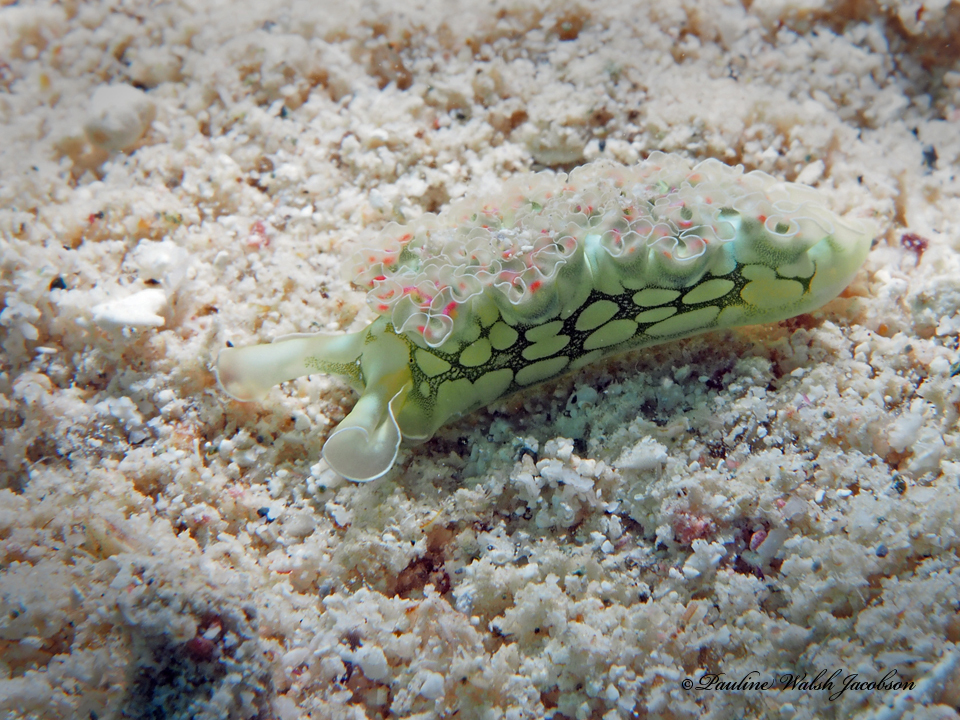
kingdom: Animalia
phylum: Mollusca
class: Gastropoda
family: Plakobranchidae
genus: Elysia
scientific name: Elysia crispata
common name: Lettuce slug
